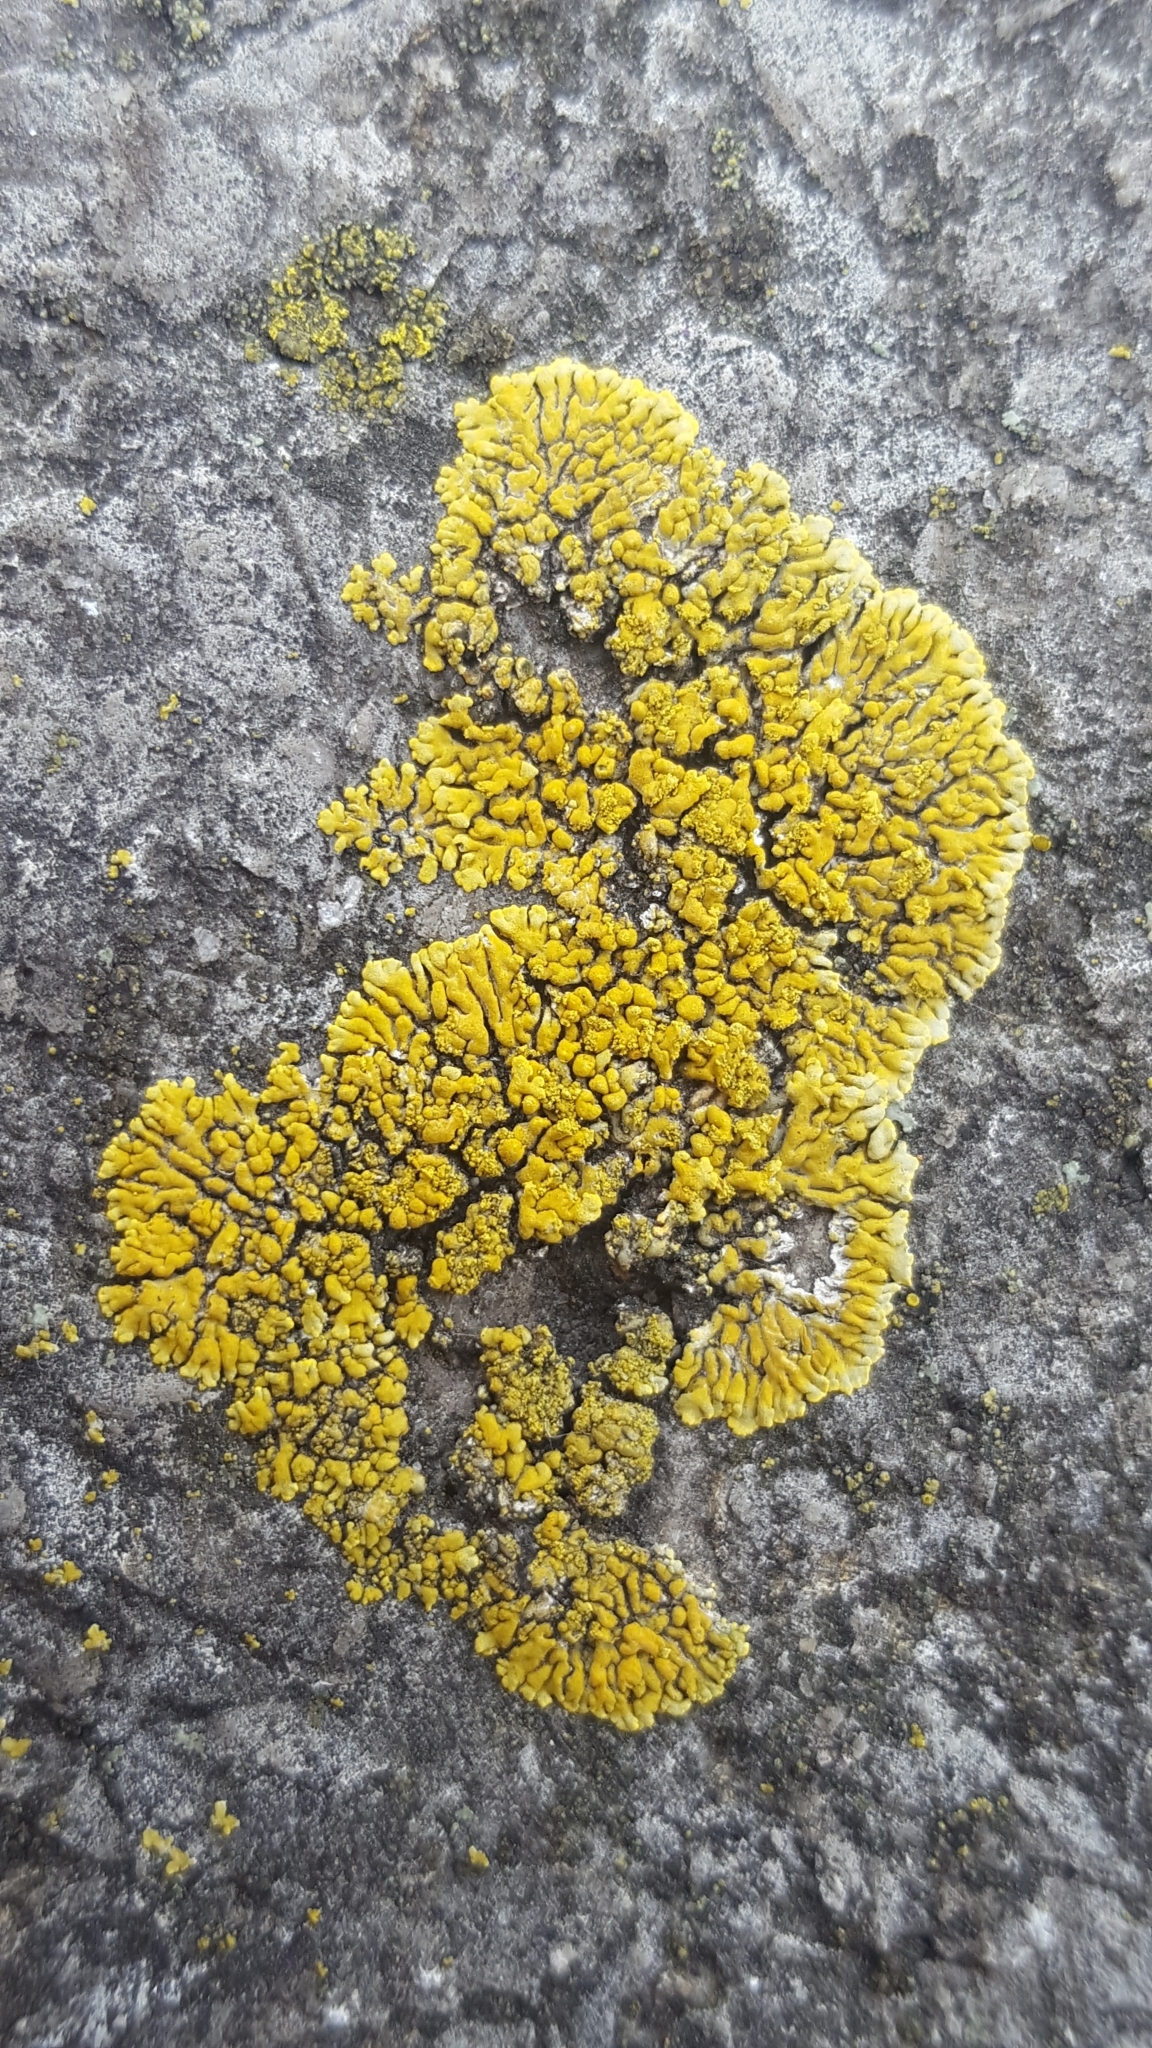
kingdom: Fungi
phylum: Ascomycota
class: Lecanoromycetes
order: Teloschistales
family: Teloschistaceae
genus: Calogaya
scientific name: Calogaya decipiens
